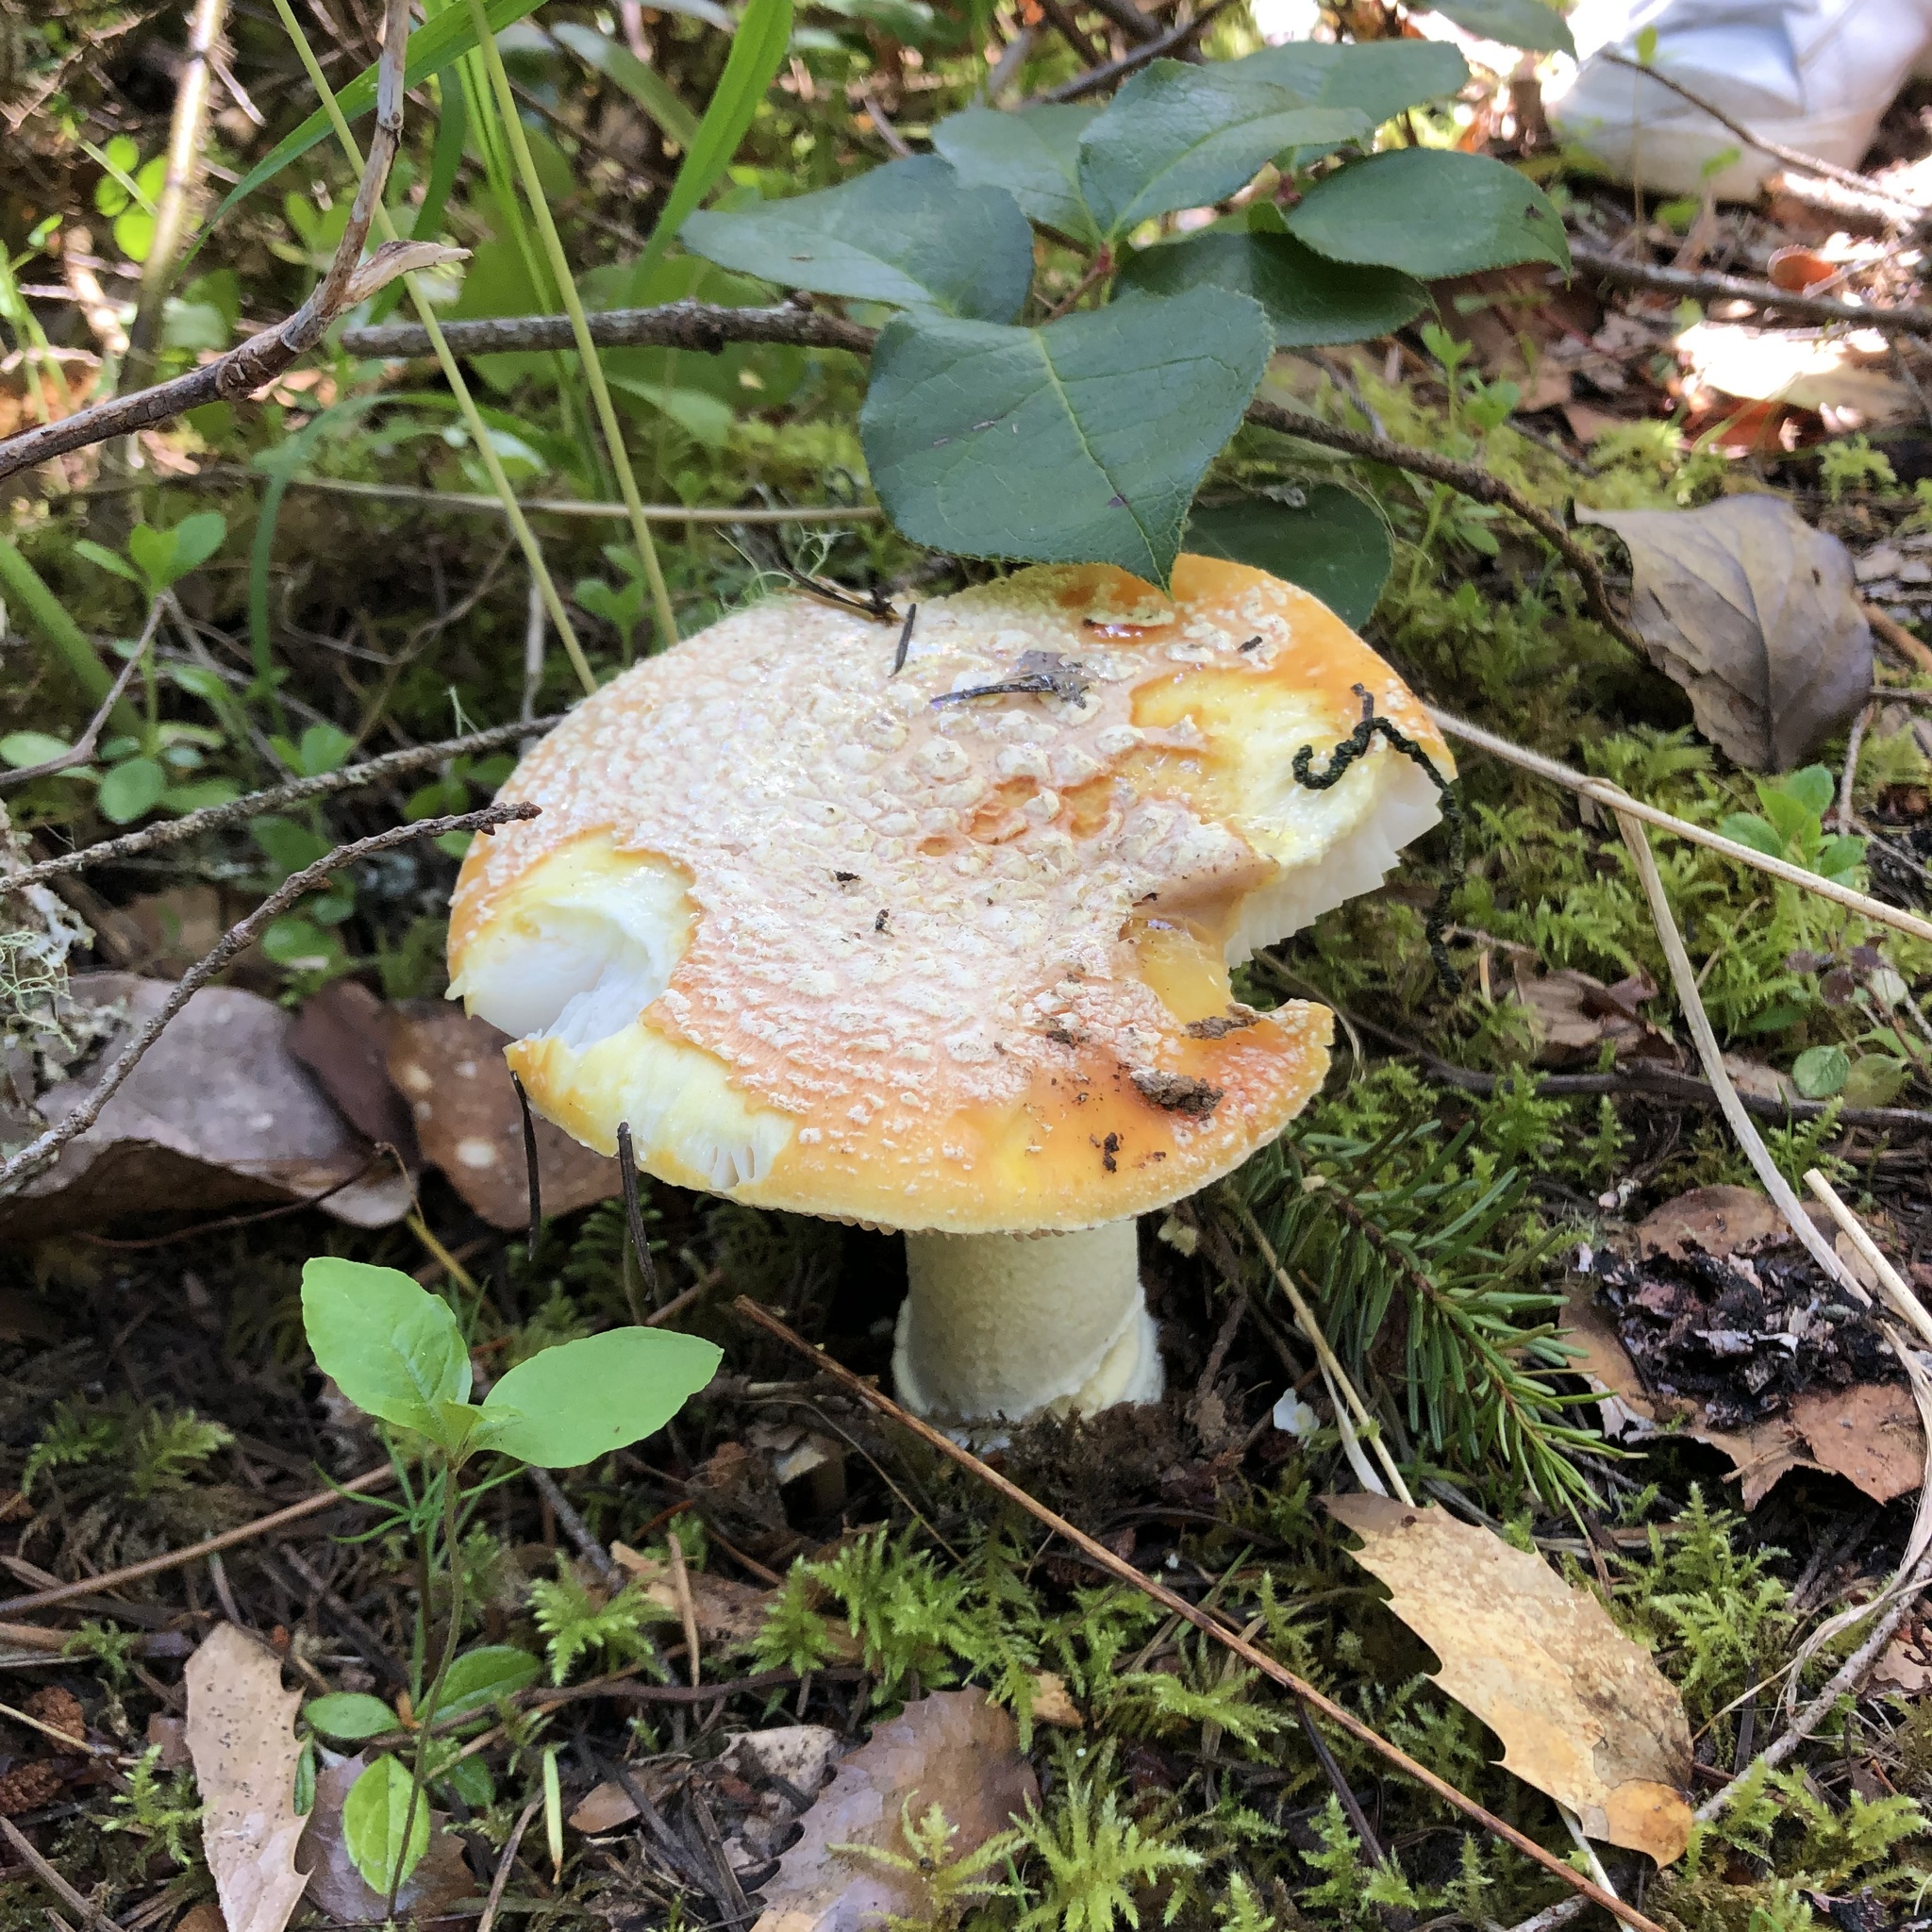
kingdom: Fungi
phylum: Basidiomycota
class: Agaricomycetes
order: Agaricales
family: Amanitaceae
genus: Amanita
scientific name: Amanita aprica
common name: Sunshine amanita
